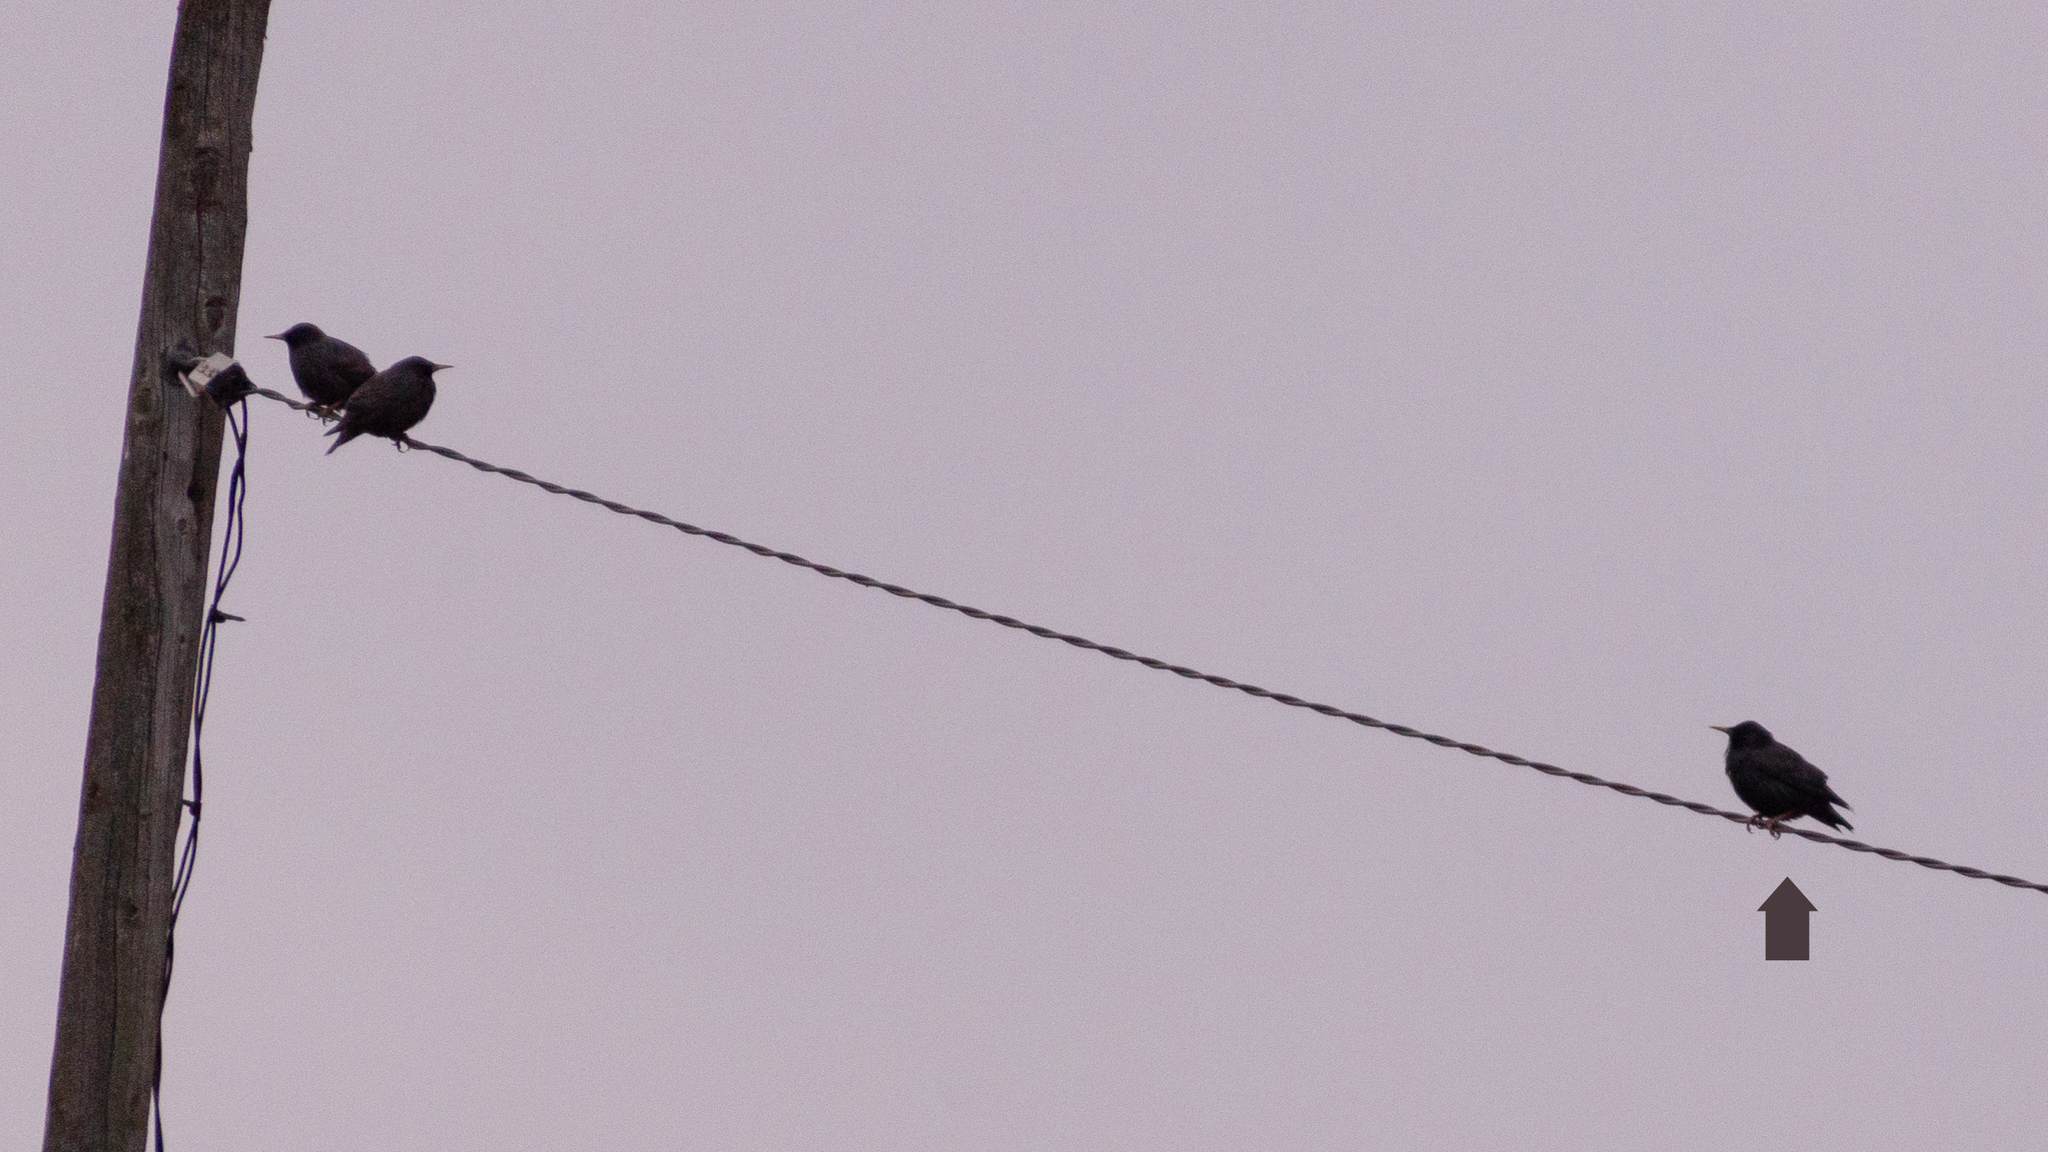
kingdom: Animalia
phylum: Chordata
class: Aves
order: Passeriformes
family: Sturnidae
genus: Sturnus
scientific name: Sturnus unicolor
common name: Spotless starling
